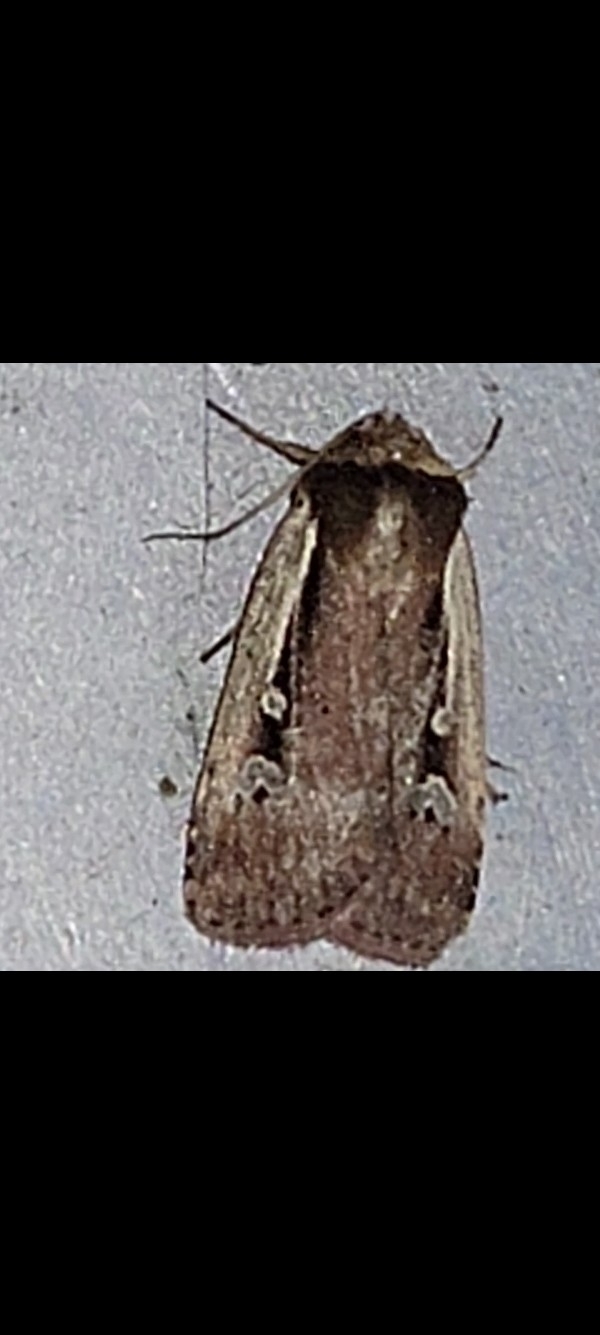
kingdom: Animalia
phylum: Arthropoda
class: Insecta
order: Lepidoptera
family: Noctuidae
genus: Ochropleura
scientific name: Ochropleura implecta
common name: Flame-shouldered dart
